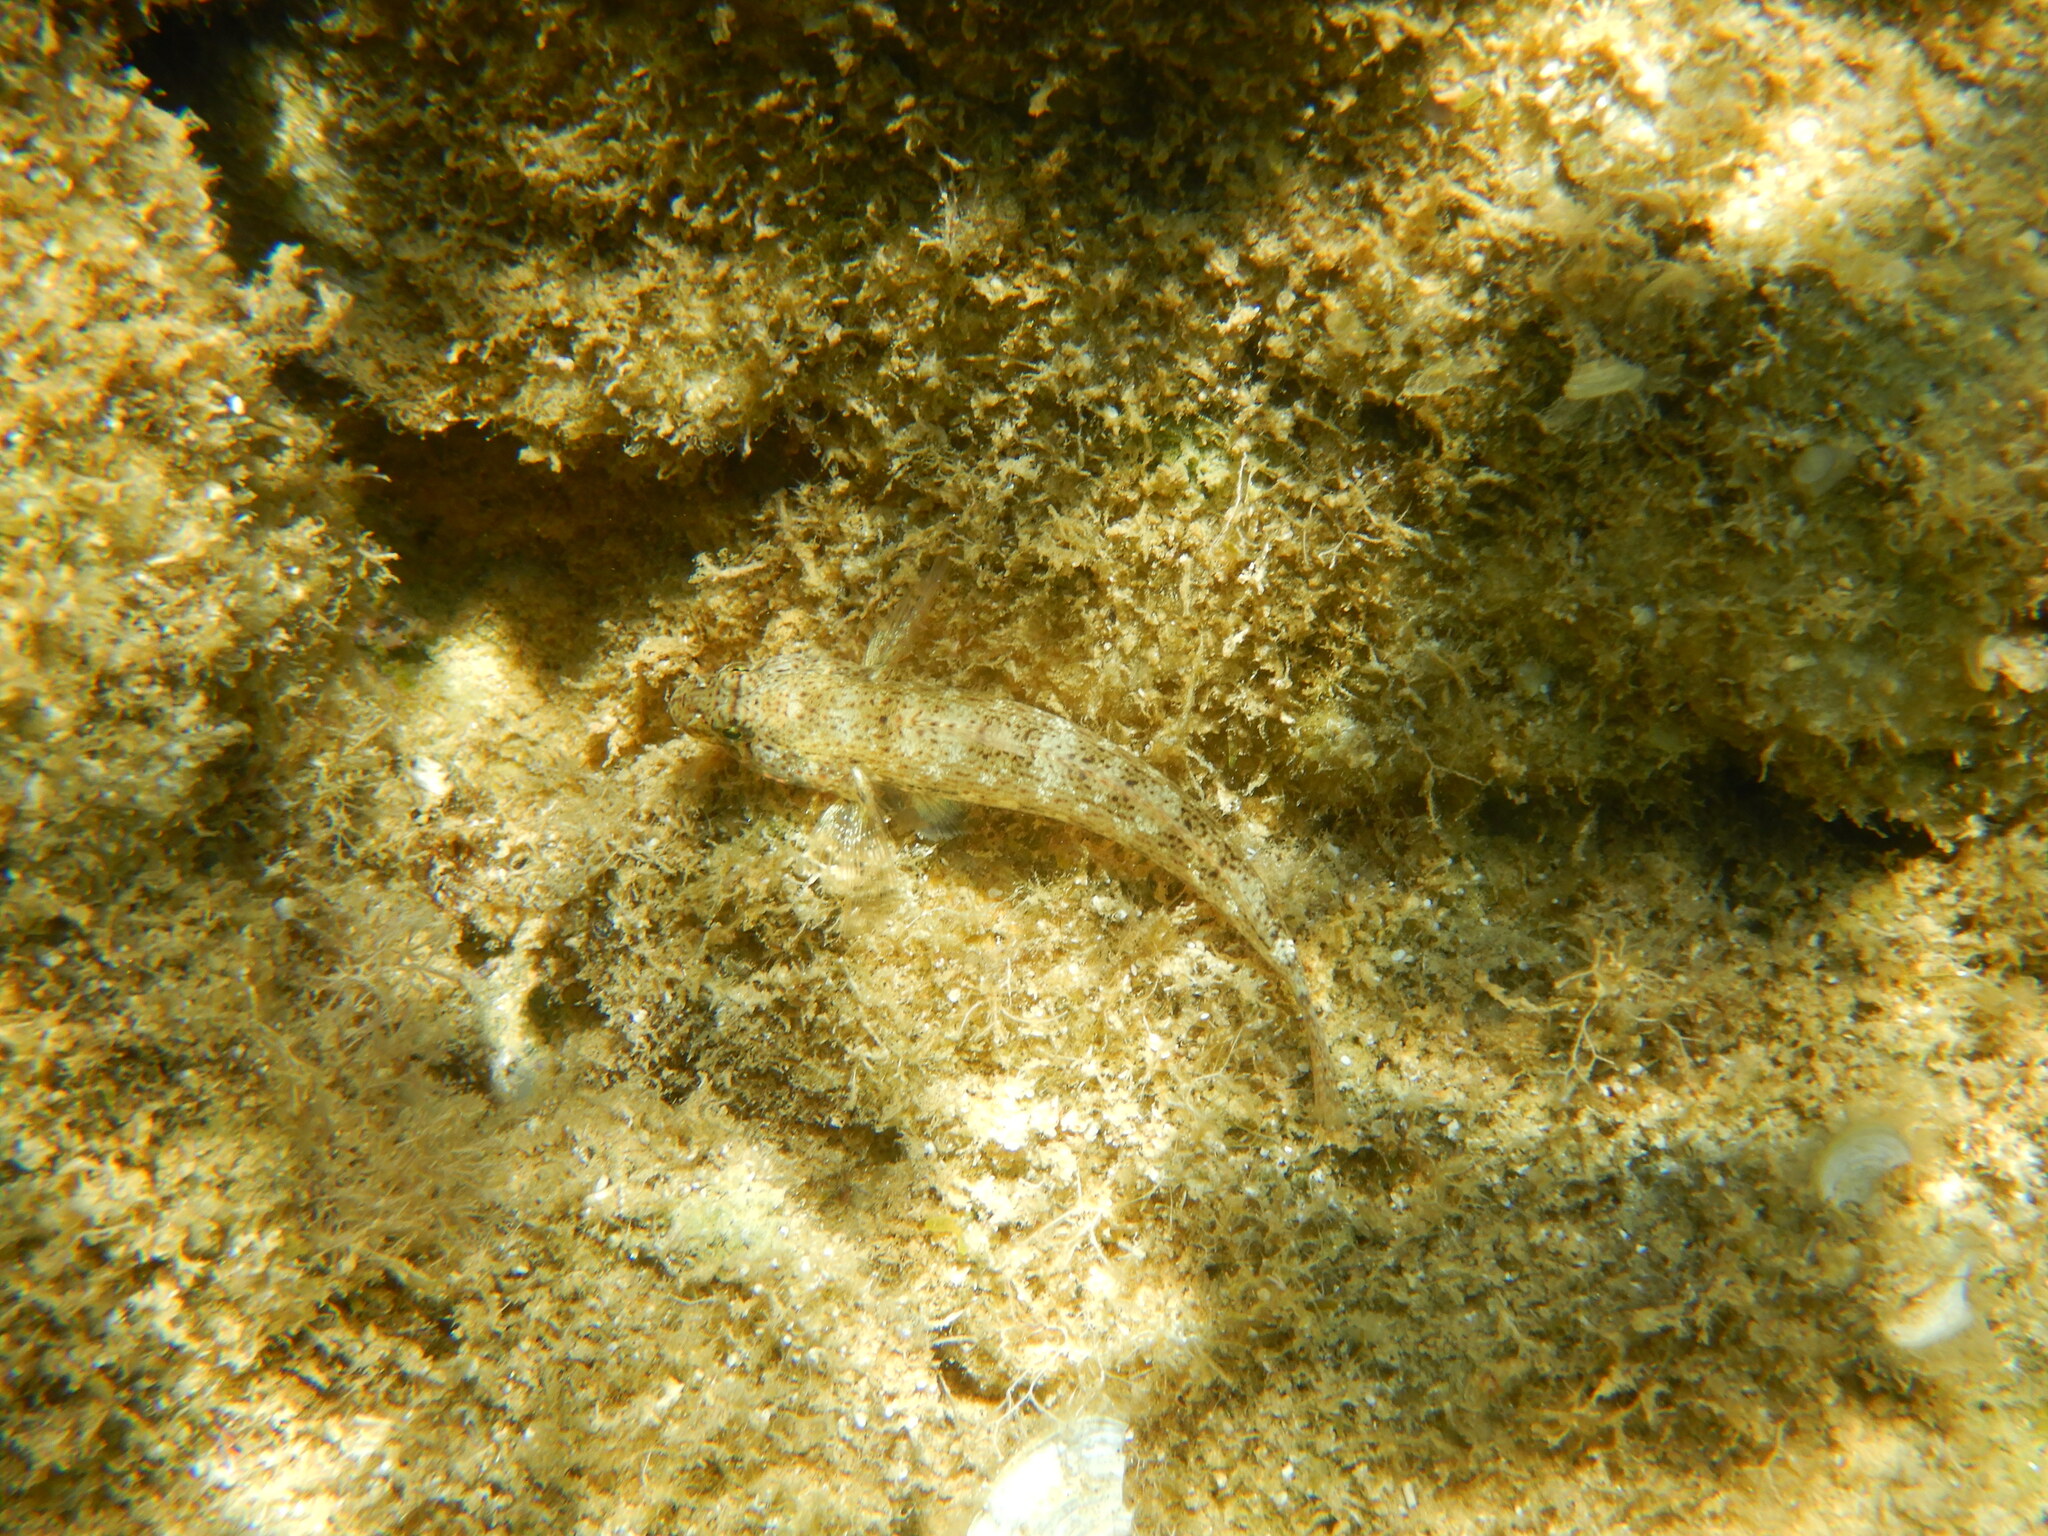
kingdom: Animalia
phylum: Chordata
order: Perciformes
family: Gobiidae
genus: Gobius
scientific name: Gobius incognitus
